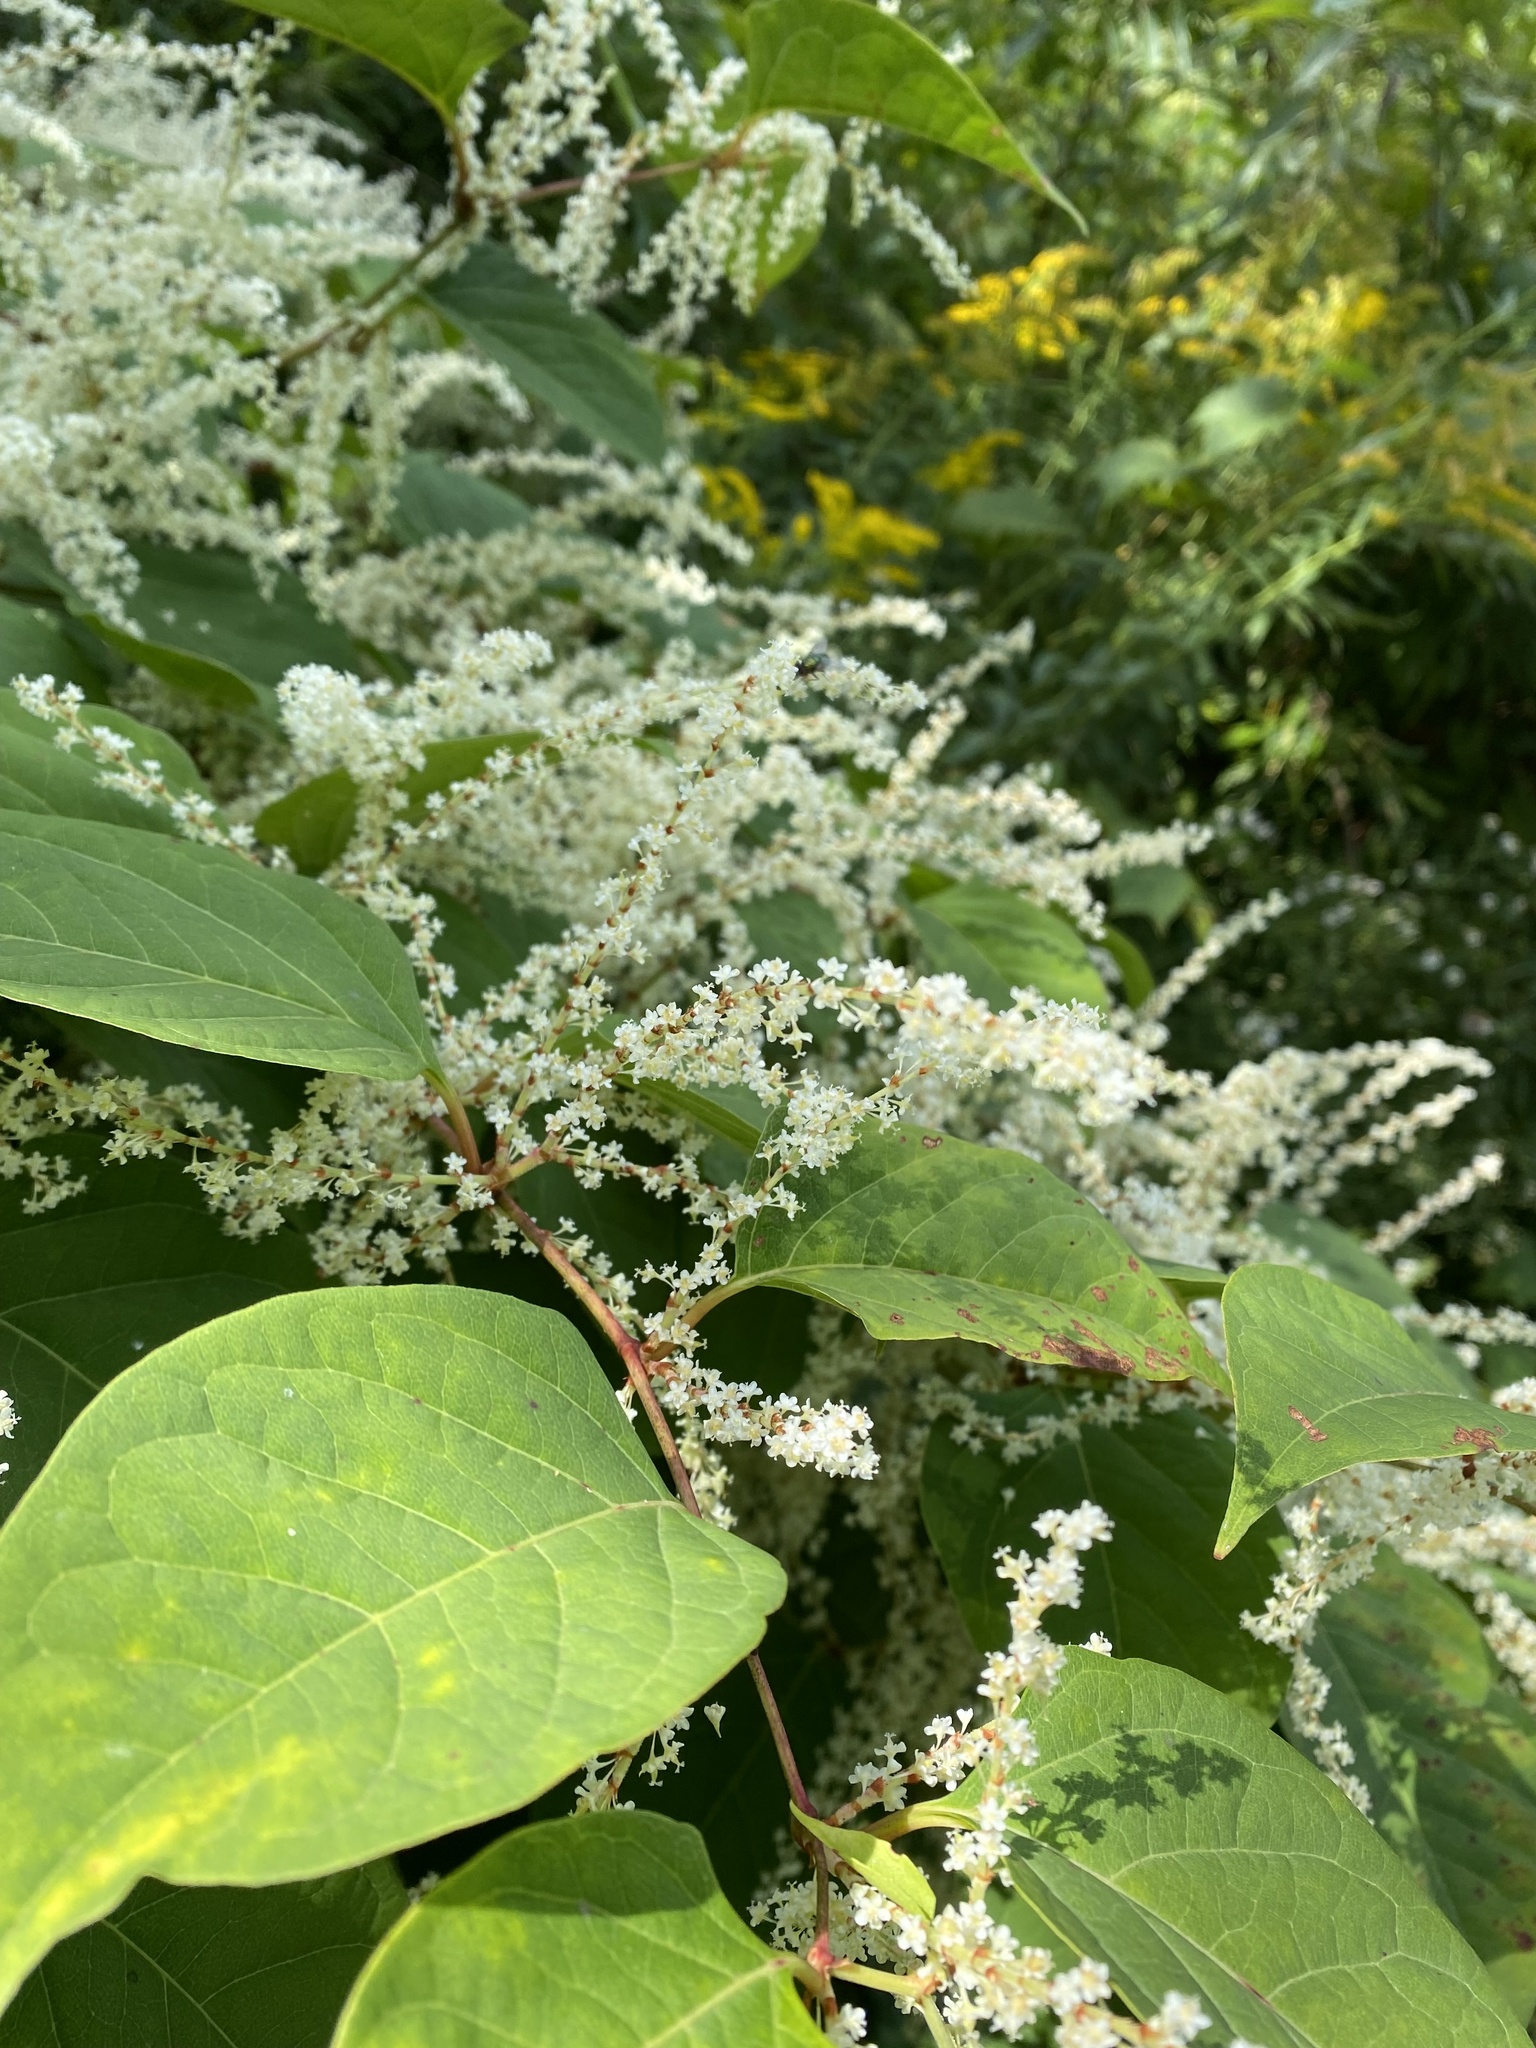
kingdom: Plantae
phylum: Tracheophyta
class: Magnoliopsida
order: Caryophyllales
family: Polygonaceae
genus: Reynoutria
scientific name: Reynoutria japonica
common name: Japanese knotweed
